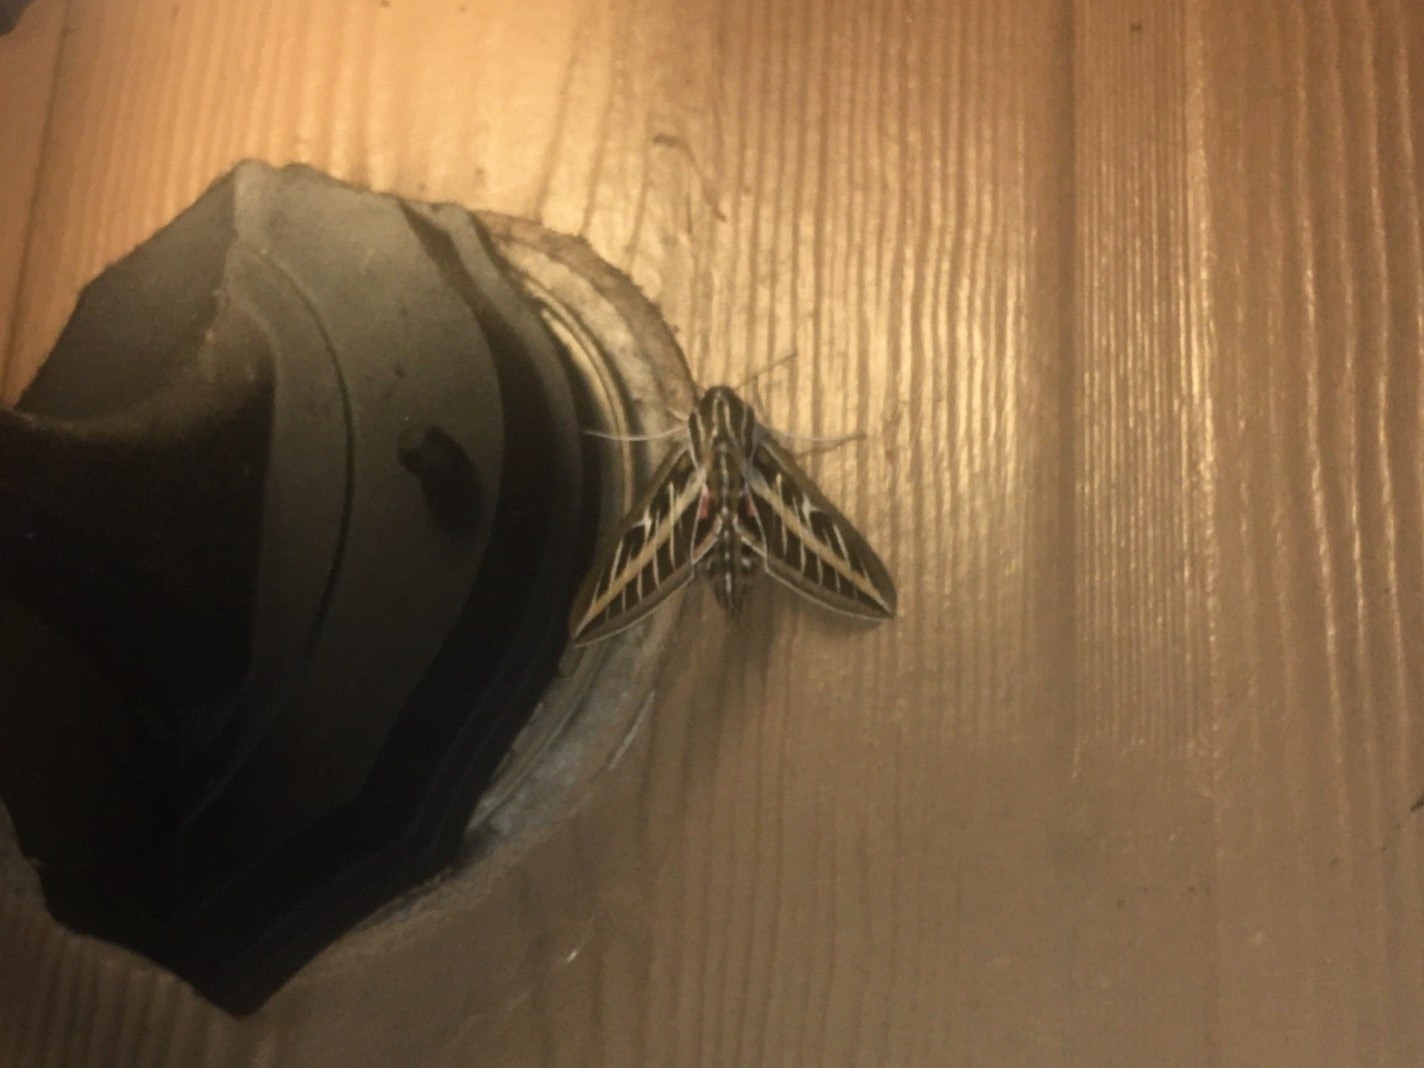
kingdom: Animalia
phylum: Arthropoda
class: Insecta
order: Lepidoptera
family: Sphingidae
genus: Hyles
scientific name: Hyles lineata
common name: White-lined sphinx
